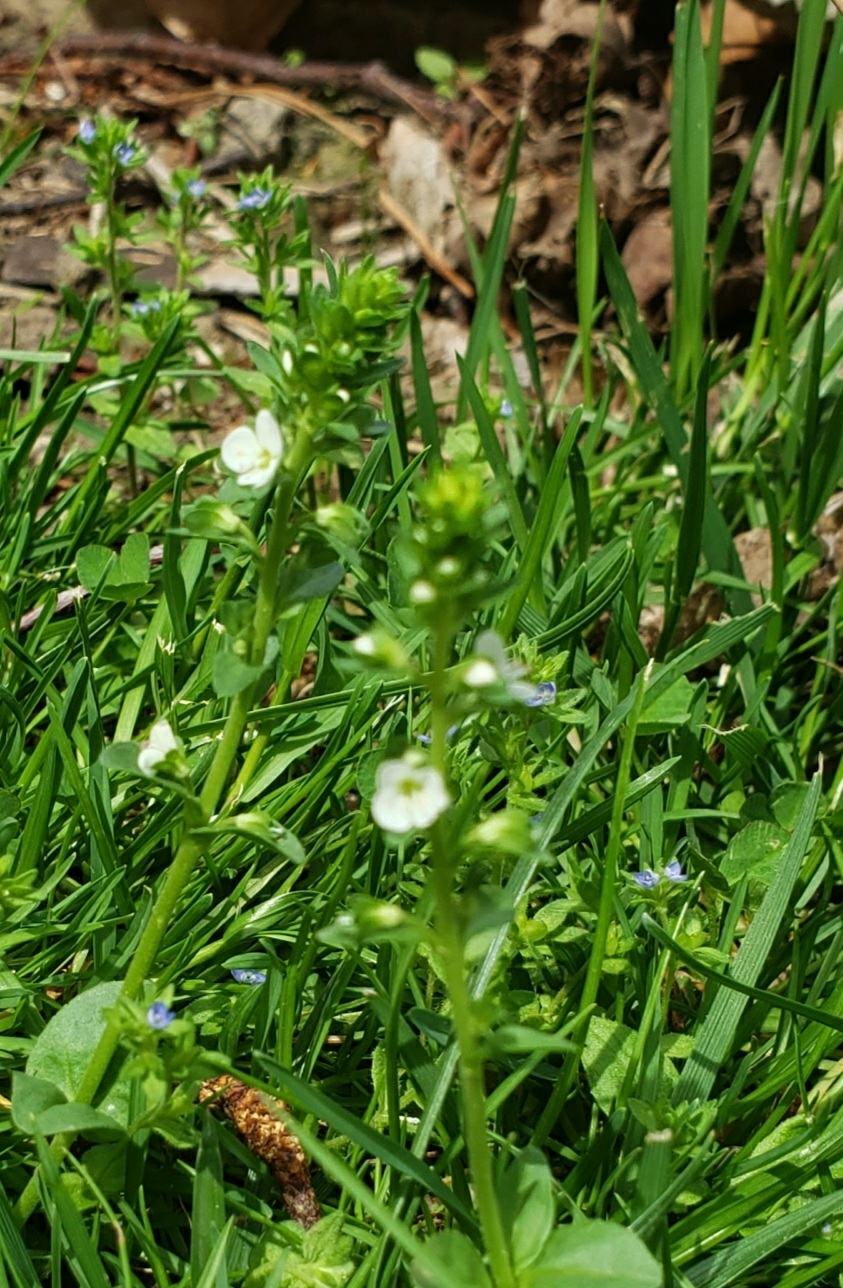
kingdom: Plantae
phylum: Tracheophyta
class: Magnoliopsida
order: Lamiales
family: Plantaginaceae
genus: Veronica
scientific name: Veronica serpyllifolia
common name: Thyme-leaved speedwell
